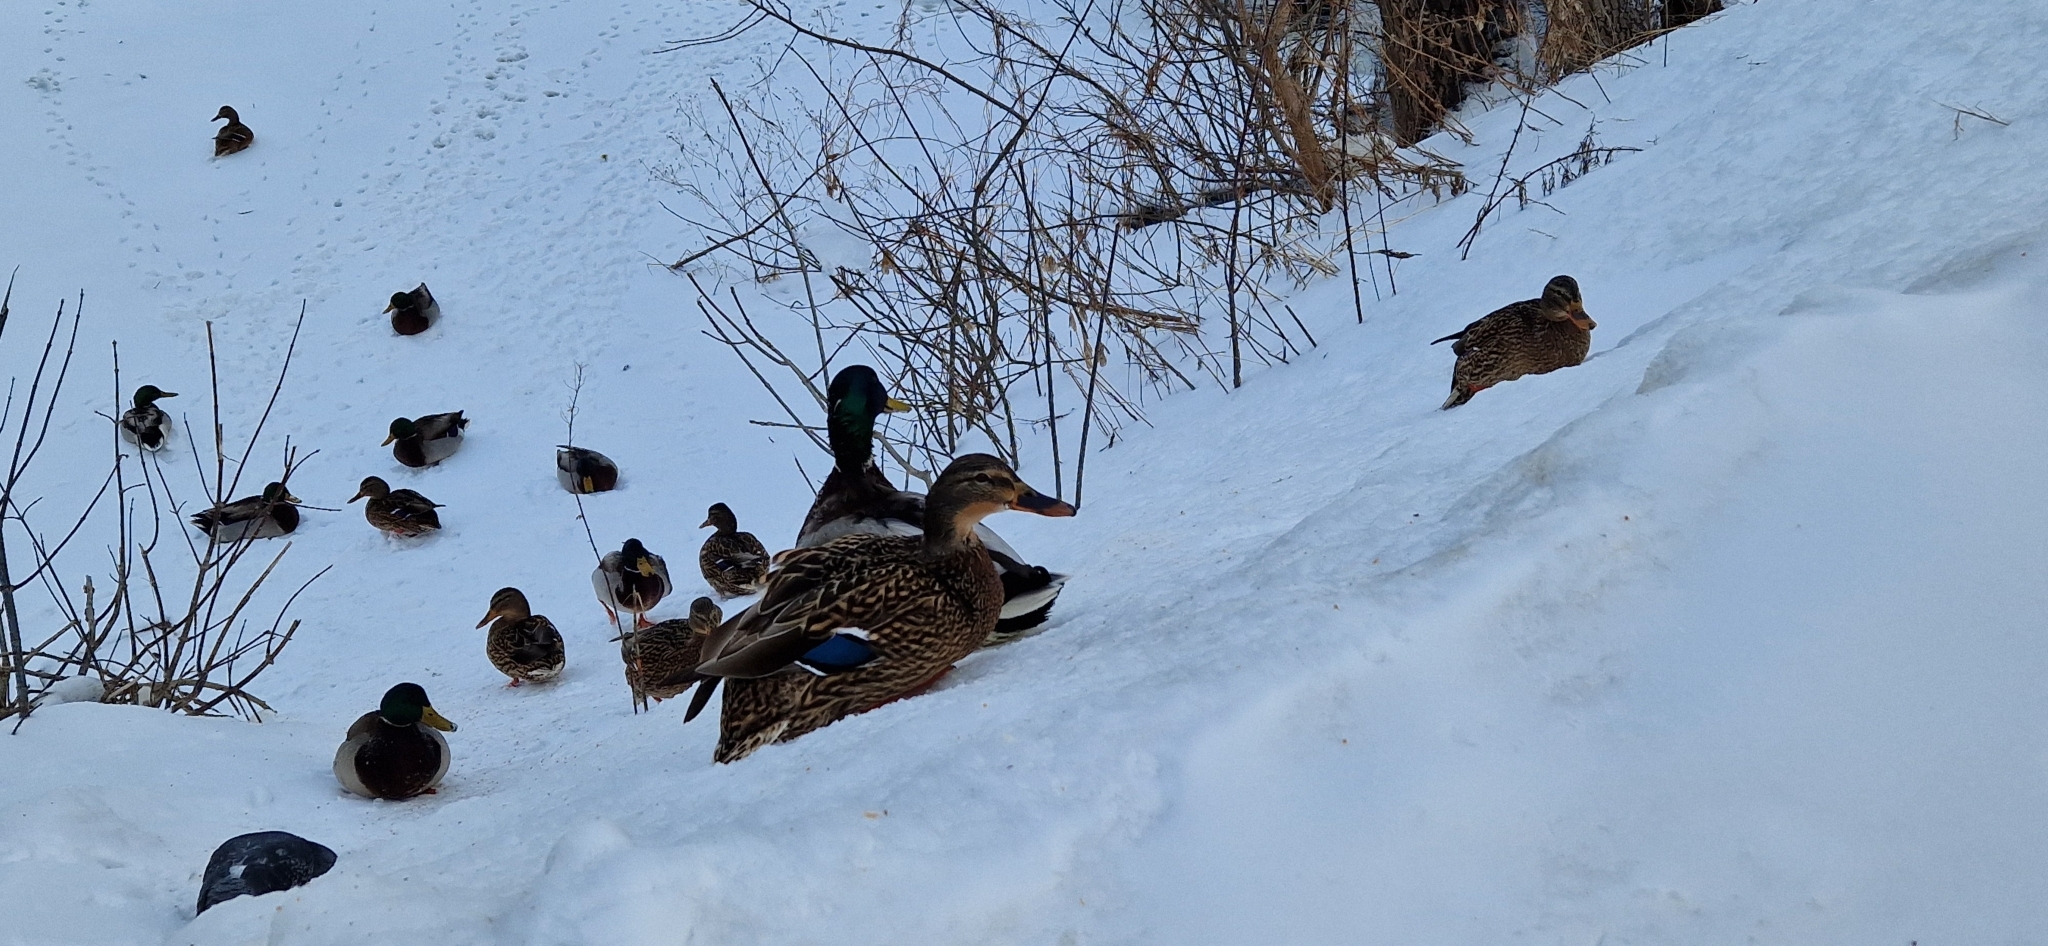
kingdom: Animalia
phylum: Chordata
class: Aves
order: Anseriformes
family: Anatidae
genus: Anas
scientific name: Anas platyrhynchos
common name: Mallard
